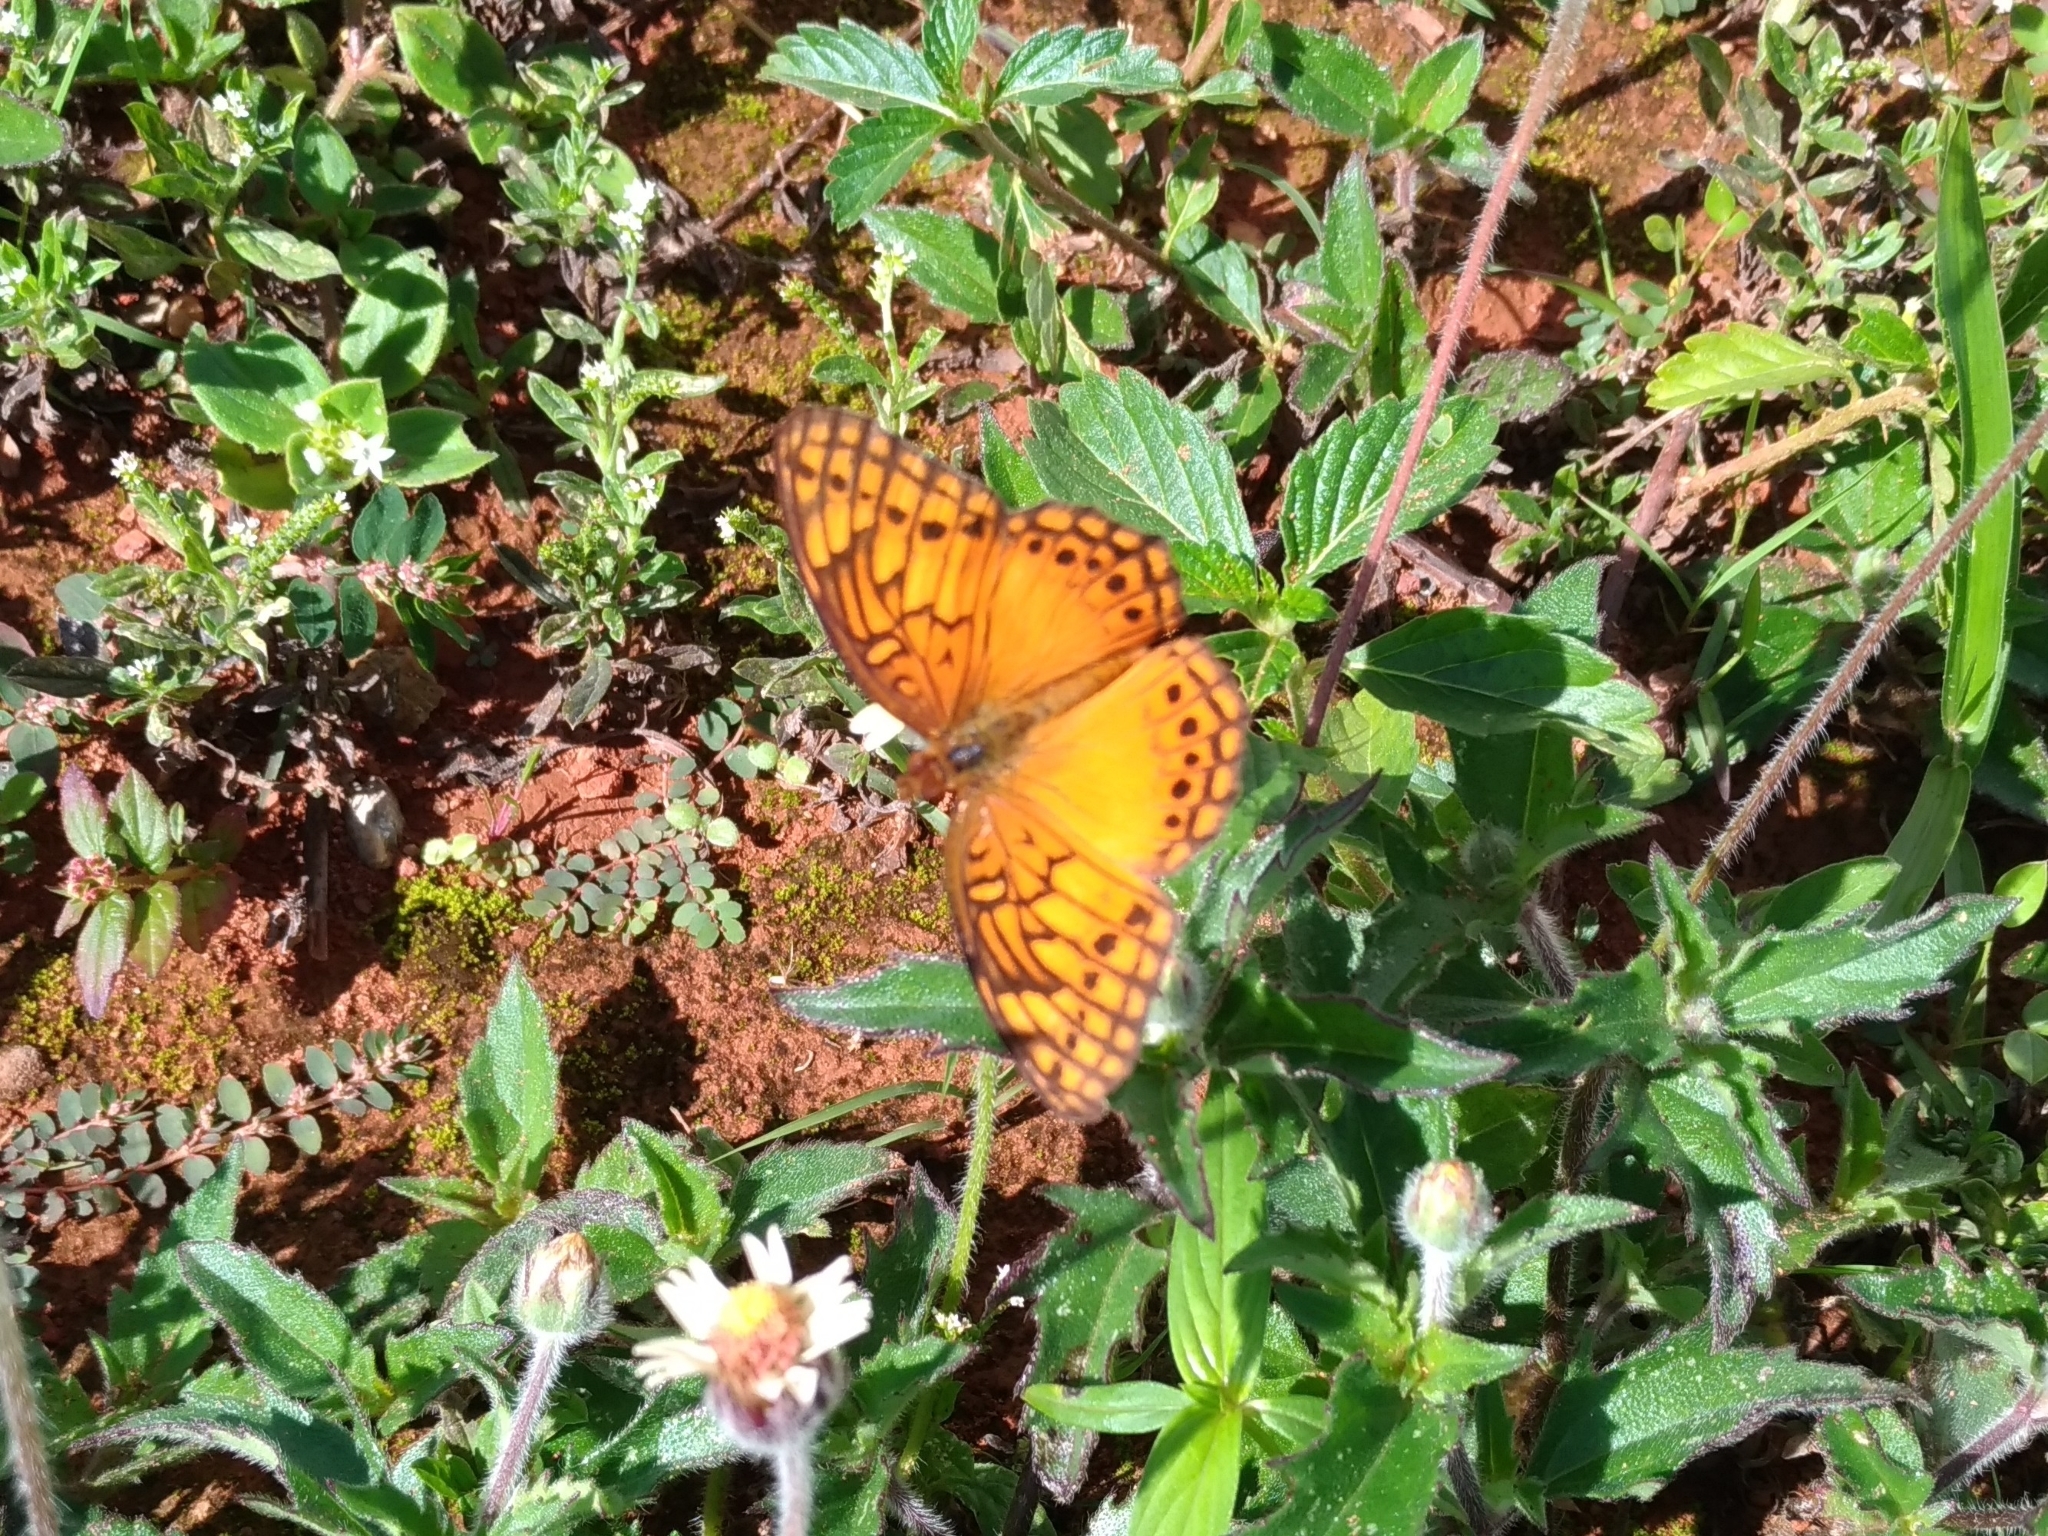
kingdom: Animalia
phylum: Arthropoda
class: Insecta
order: Lepidoptera
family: Nymphalidae
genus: Euptoieta
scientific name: Euptoieta hegesia
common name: Mexican fritillary
